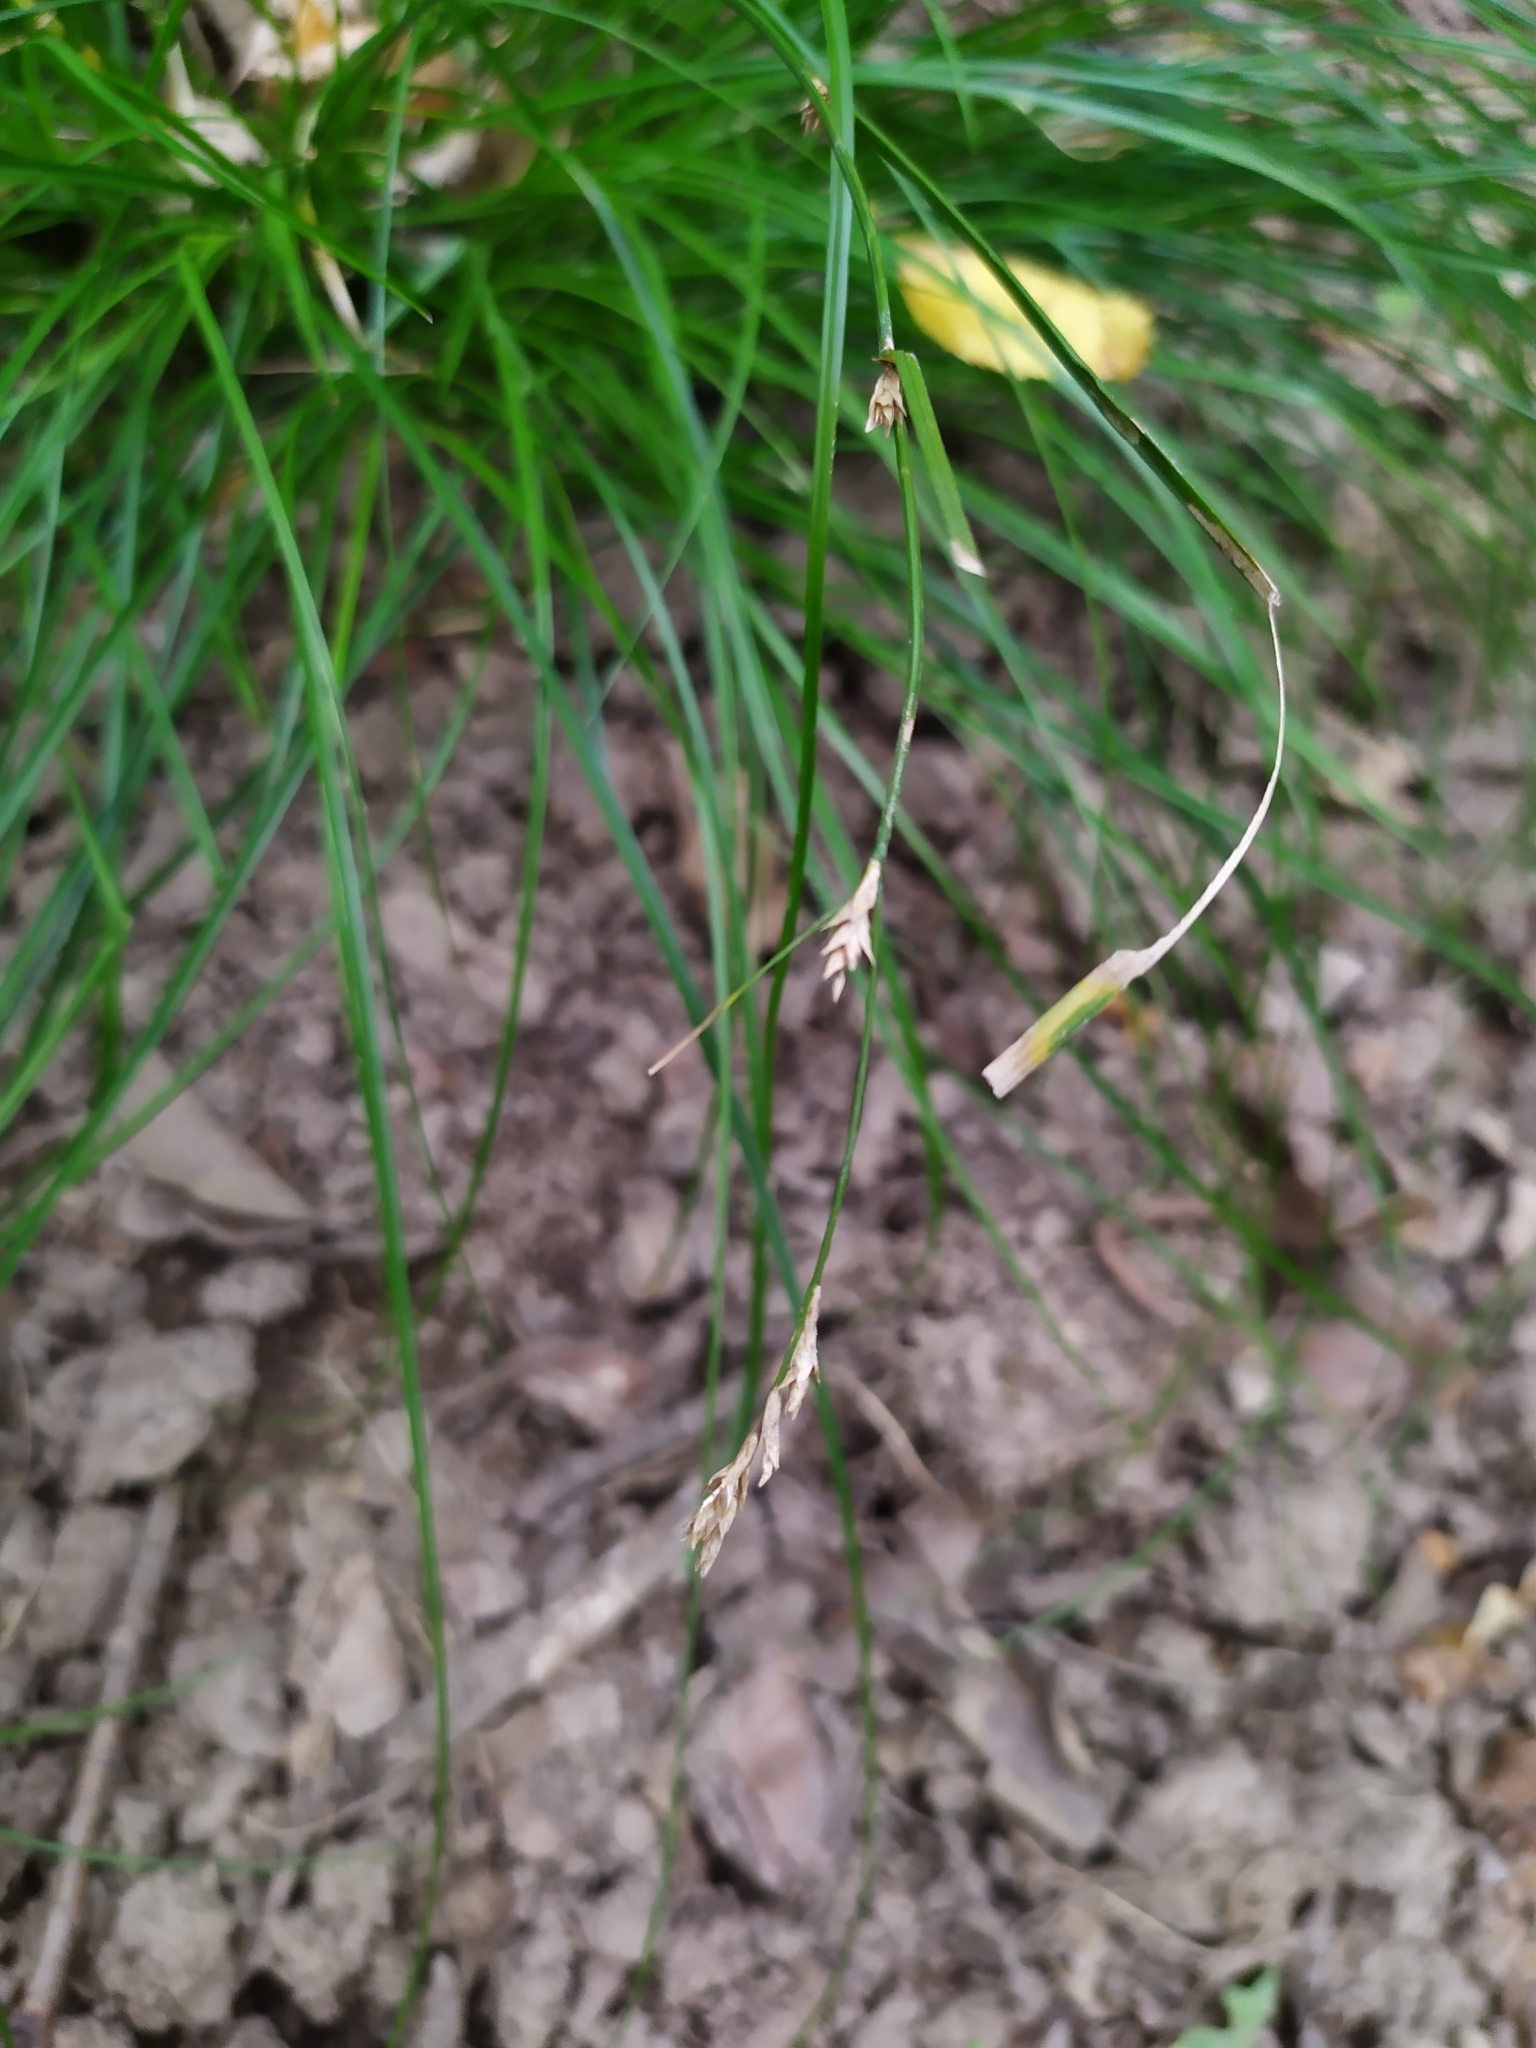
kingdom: Plantae
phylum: Tracheophyta
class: Liliopsida
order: Poales
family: Cyperaceae
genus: Carex
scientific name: Carex remota
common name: Remote sedge
